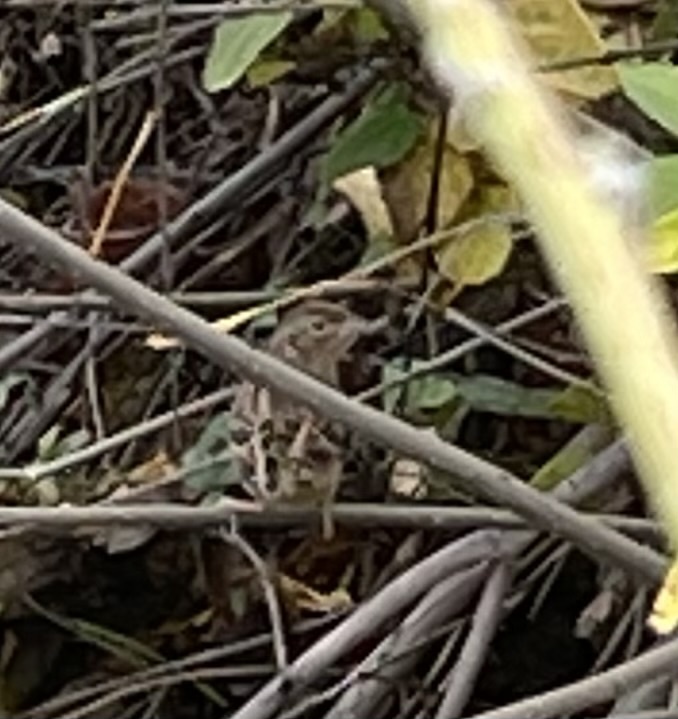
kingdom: Animalia
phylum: Chordata
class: Aves
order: Passeriformes
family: Passerellidae
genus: Ammodramus
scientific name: Ammodramus savannarum
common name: Grasshopper sparrow
